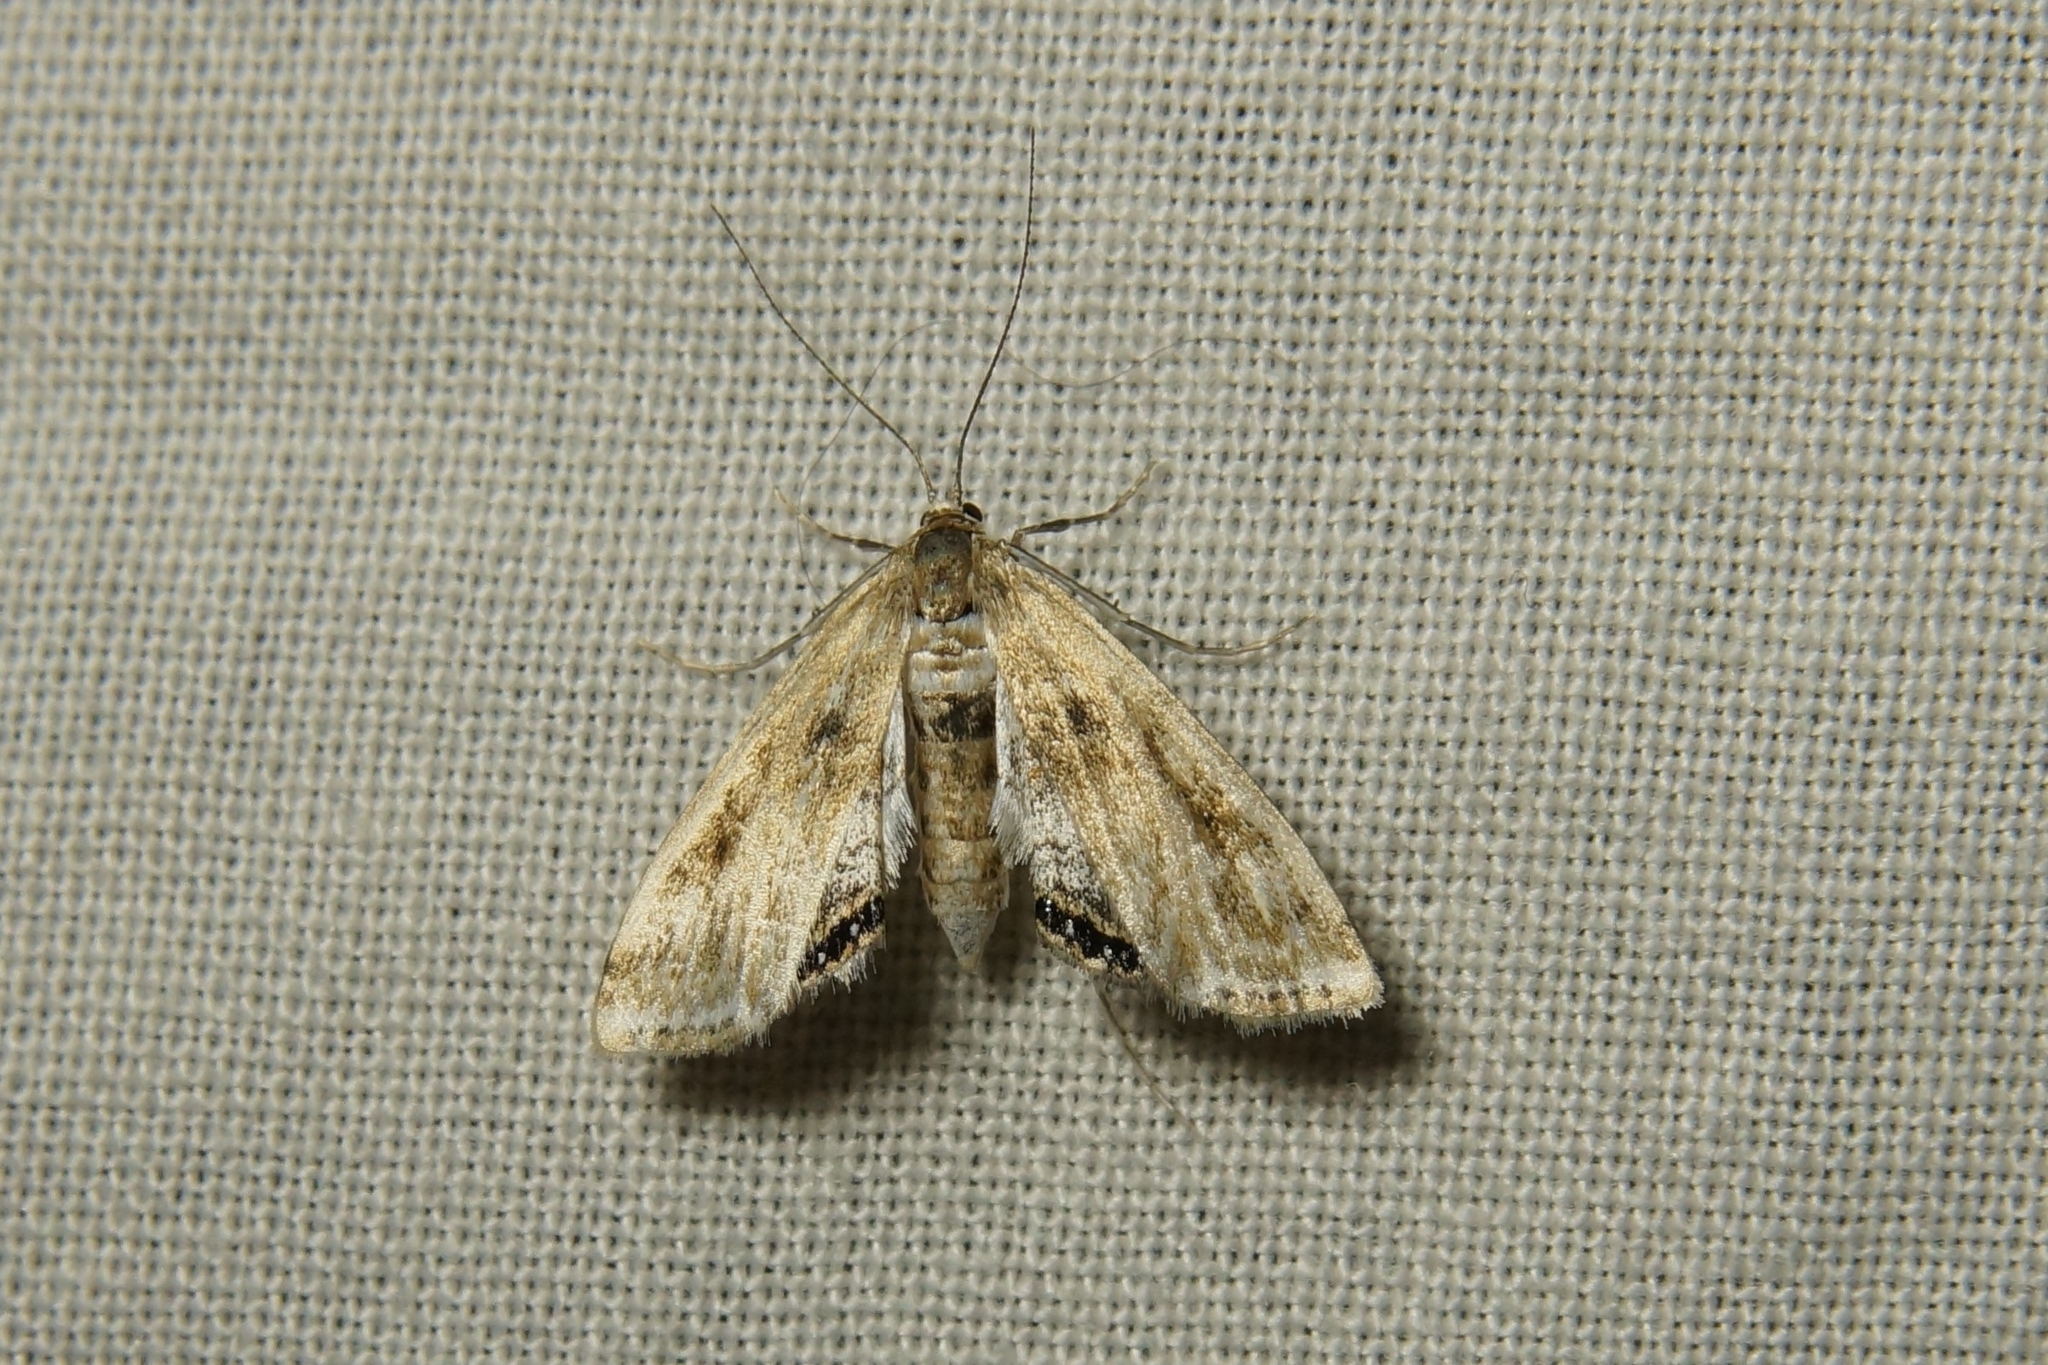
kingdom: Animalia
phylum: Arthropoda
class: Insecta
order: Lepidoptera
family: Crambidae
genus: Cataclysta
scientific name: Cataclysta lemnata
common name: Small china-mark
